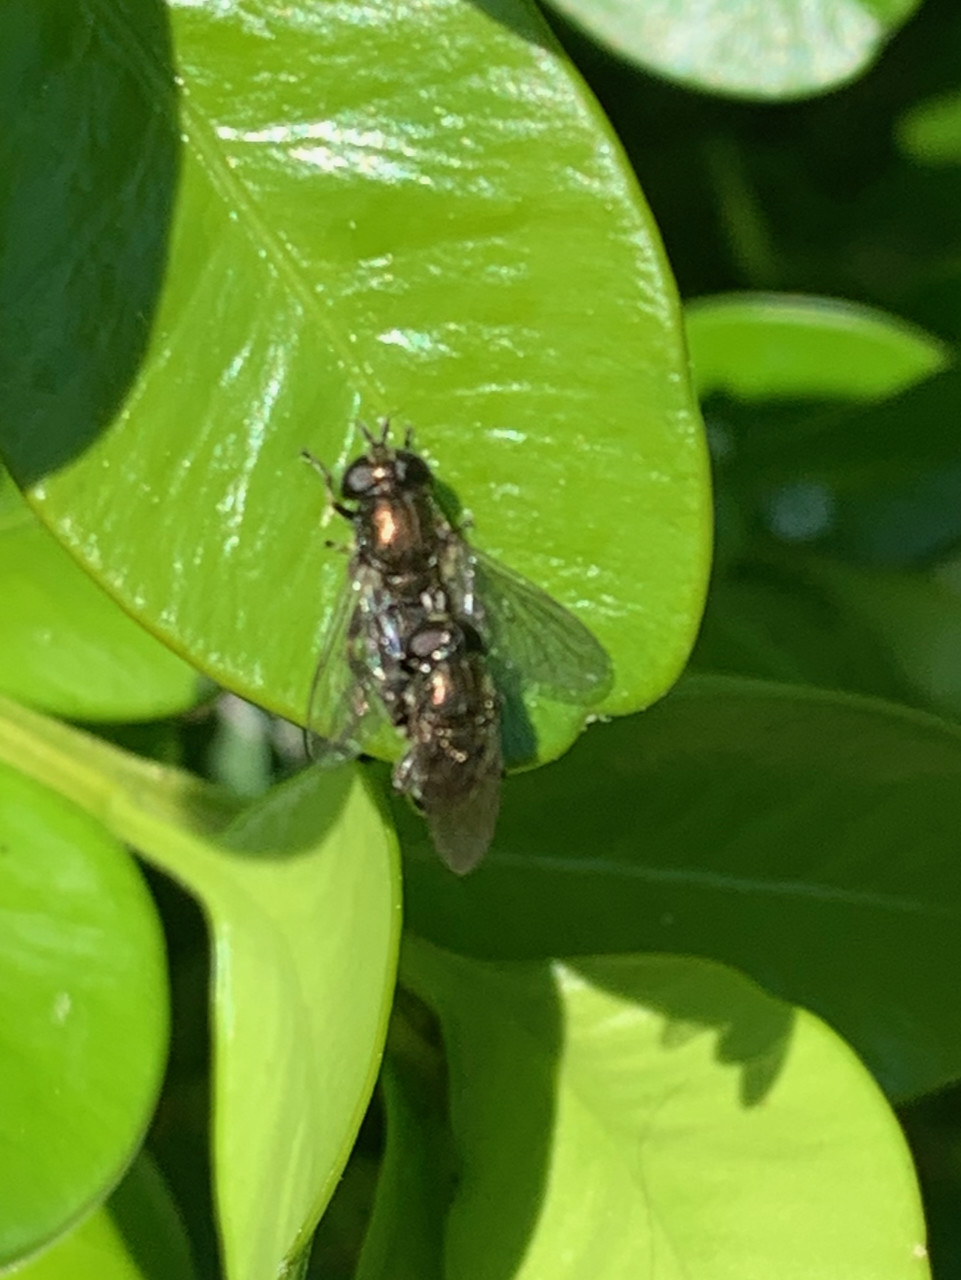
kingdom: Animalia
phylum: Arthropoda
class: Insecta
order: Diptera
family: Syrphidae
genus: Eumerus
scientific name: Eumerus
